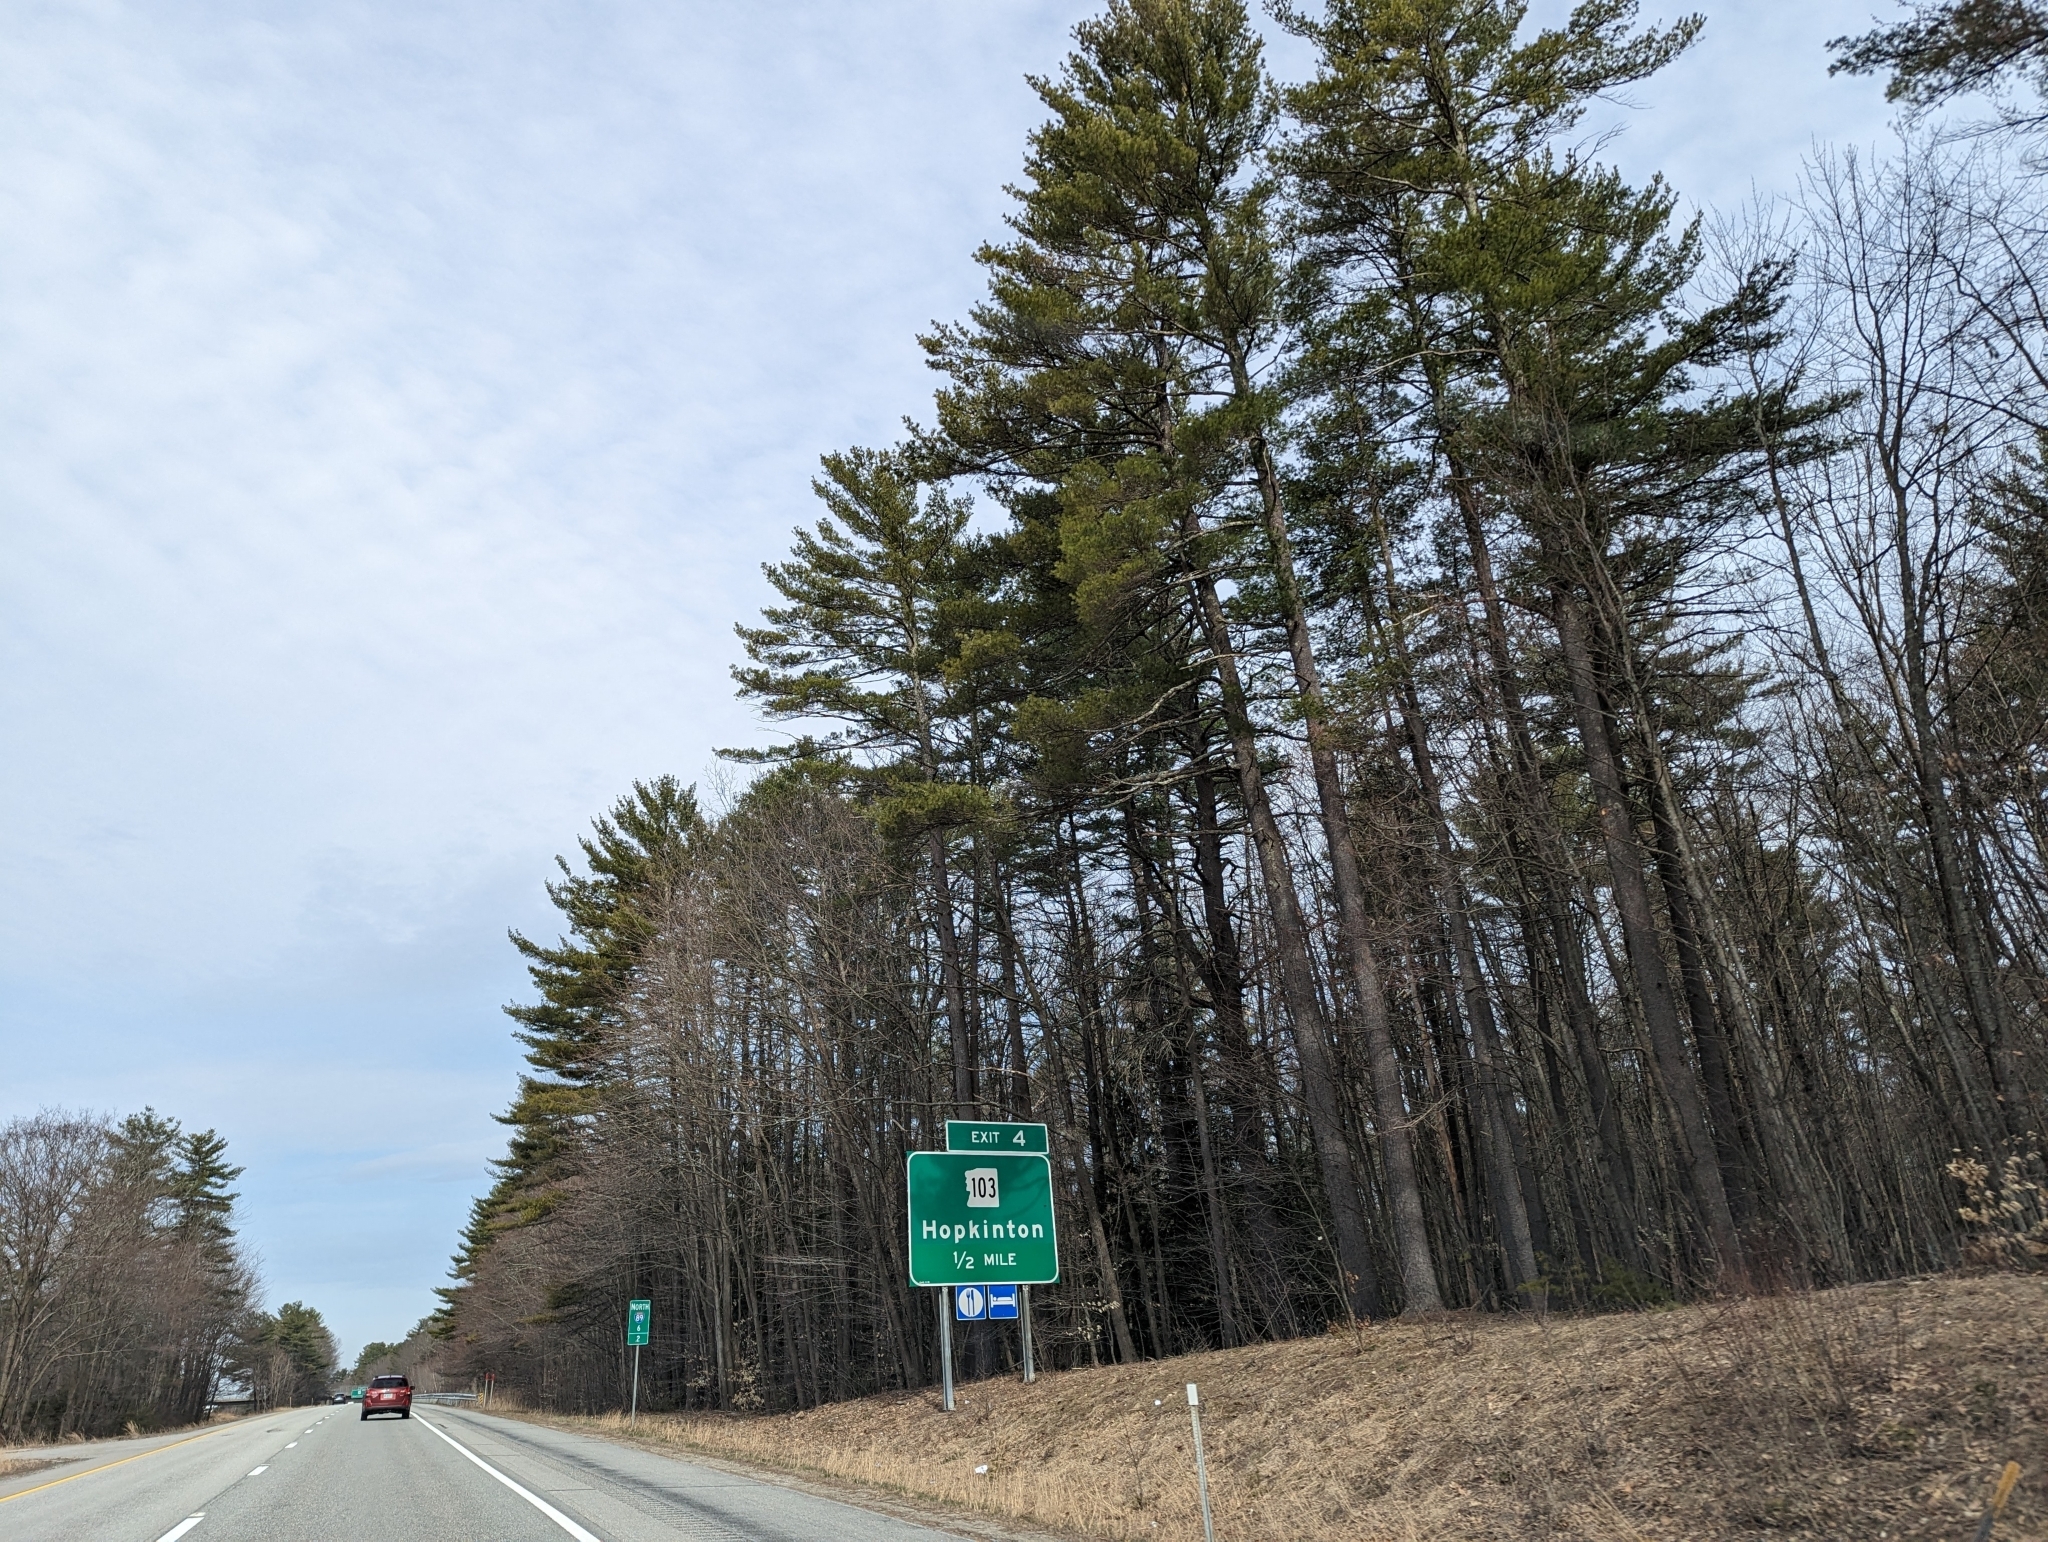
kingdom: Plantae
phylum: Tracheophyta
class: Pinopsida
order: Pinales
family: Pinaceae
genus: Pinus
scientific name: Pinus strobus
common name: Weymouth pine
